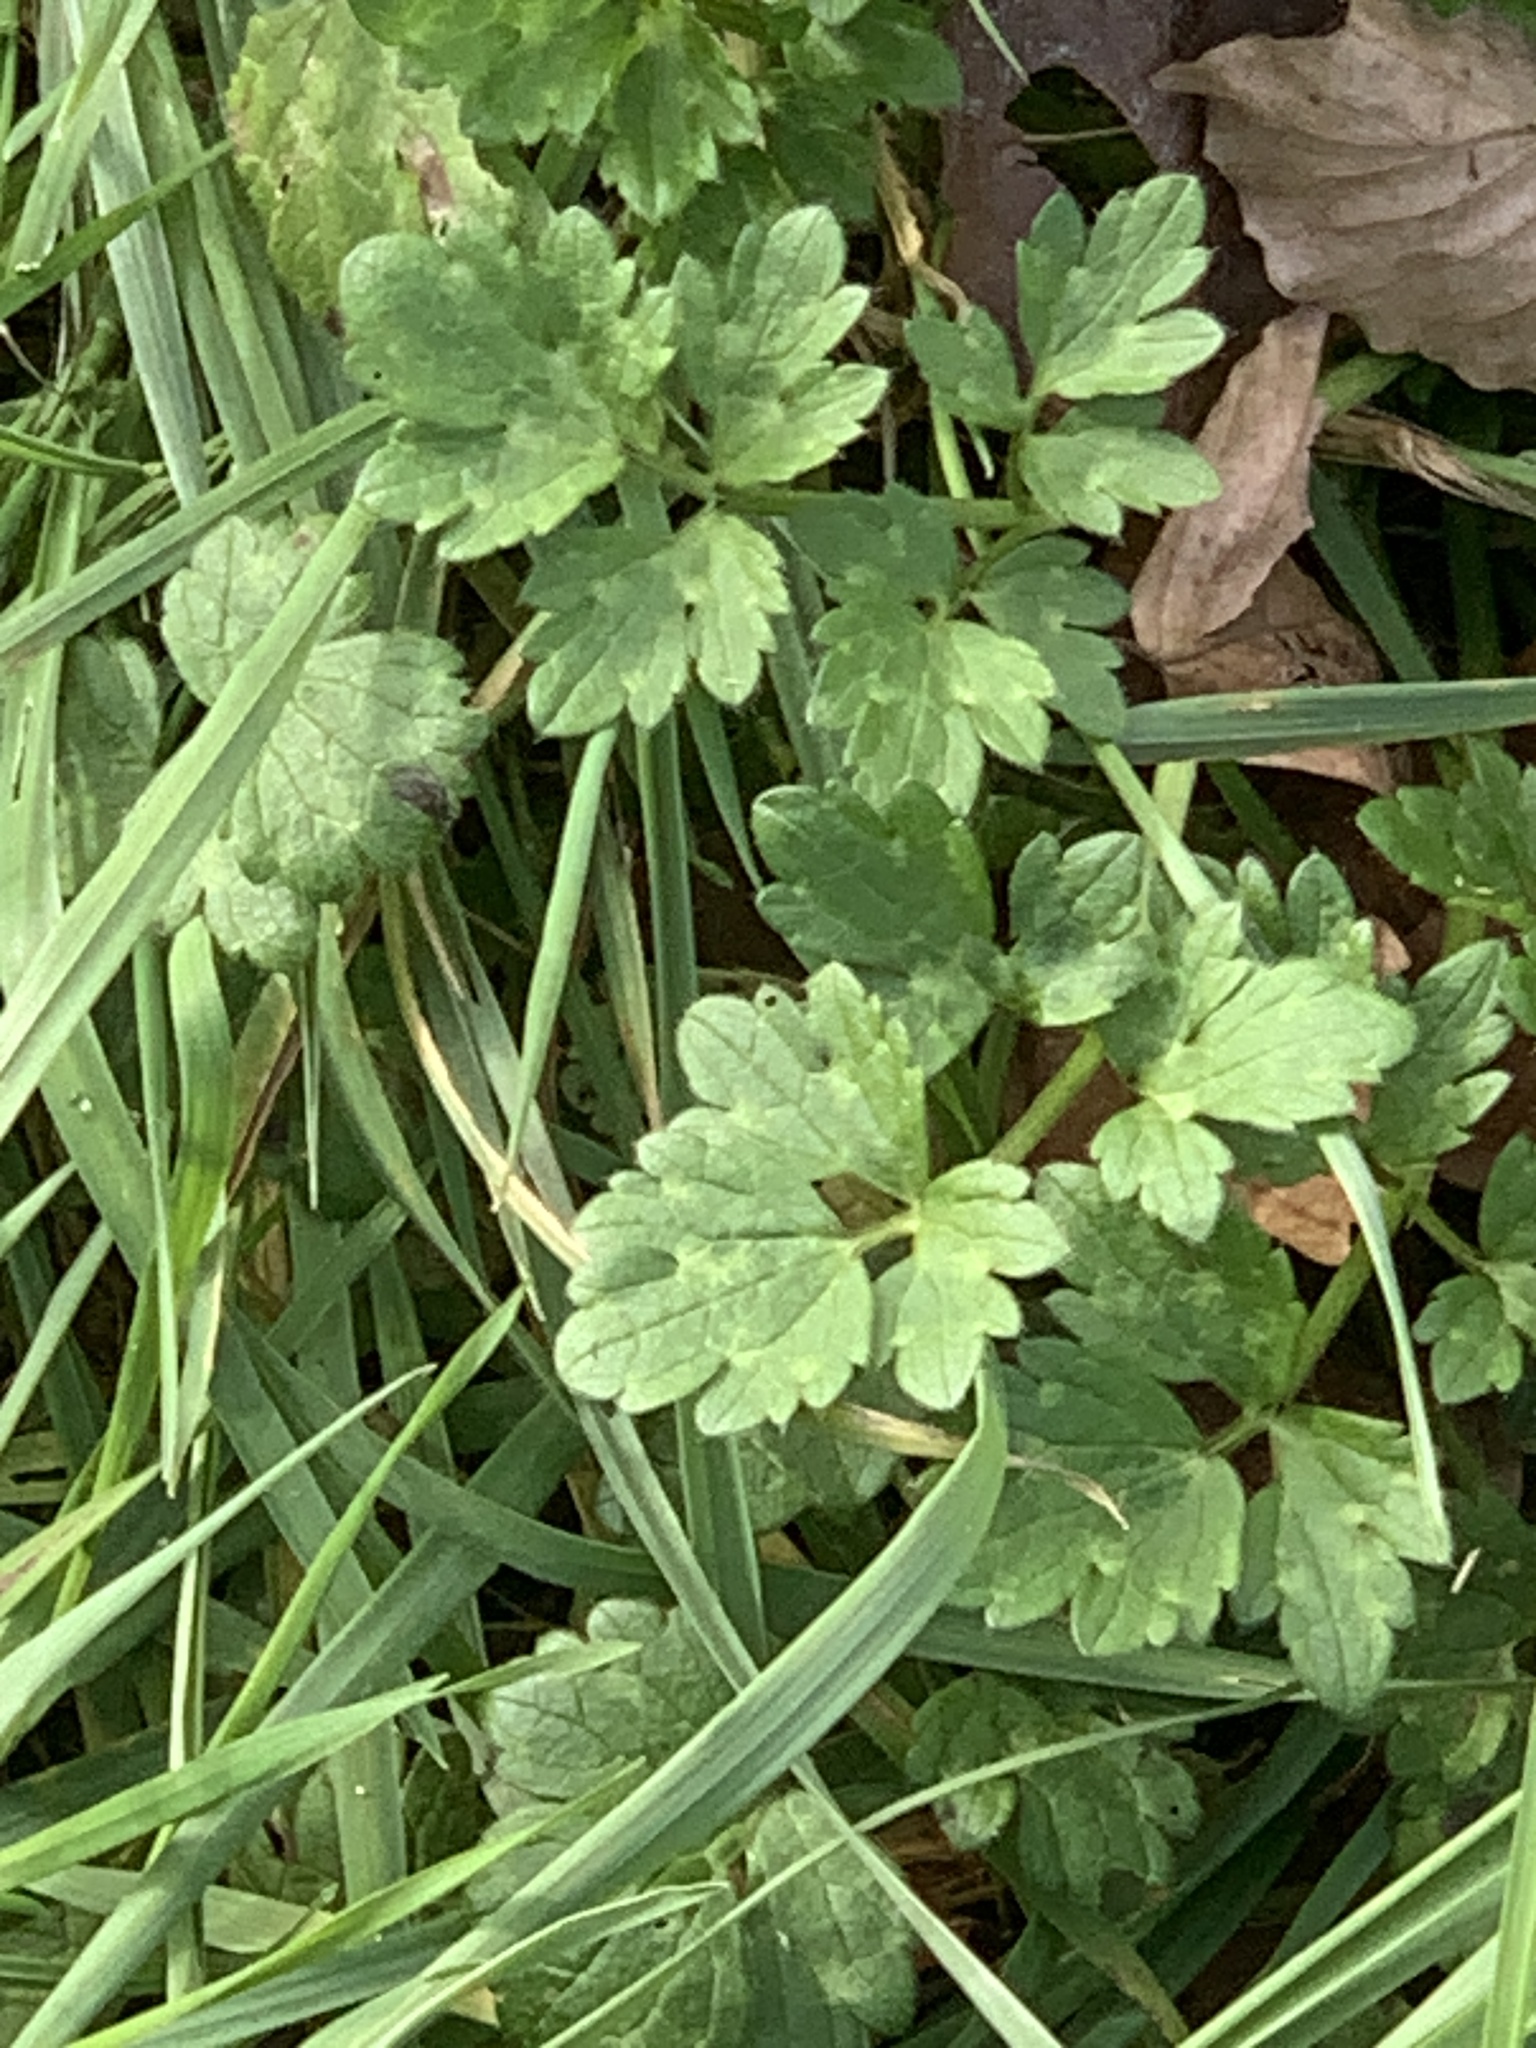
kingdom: Plantae
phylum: Tracheophyta
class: Magnoliopsida
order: Ranunculales
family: Ranunculaceae
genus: Ranunculus
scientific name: Ranunculus repens
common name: Creeping buttercup
